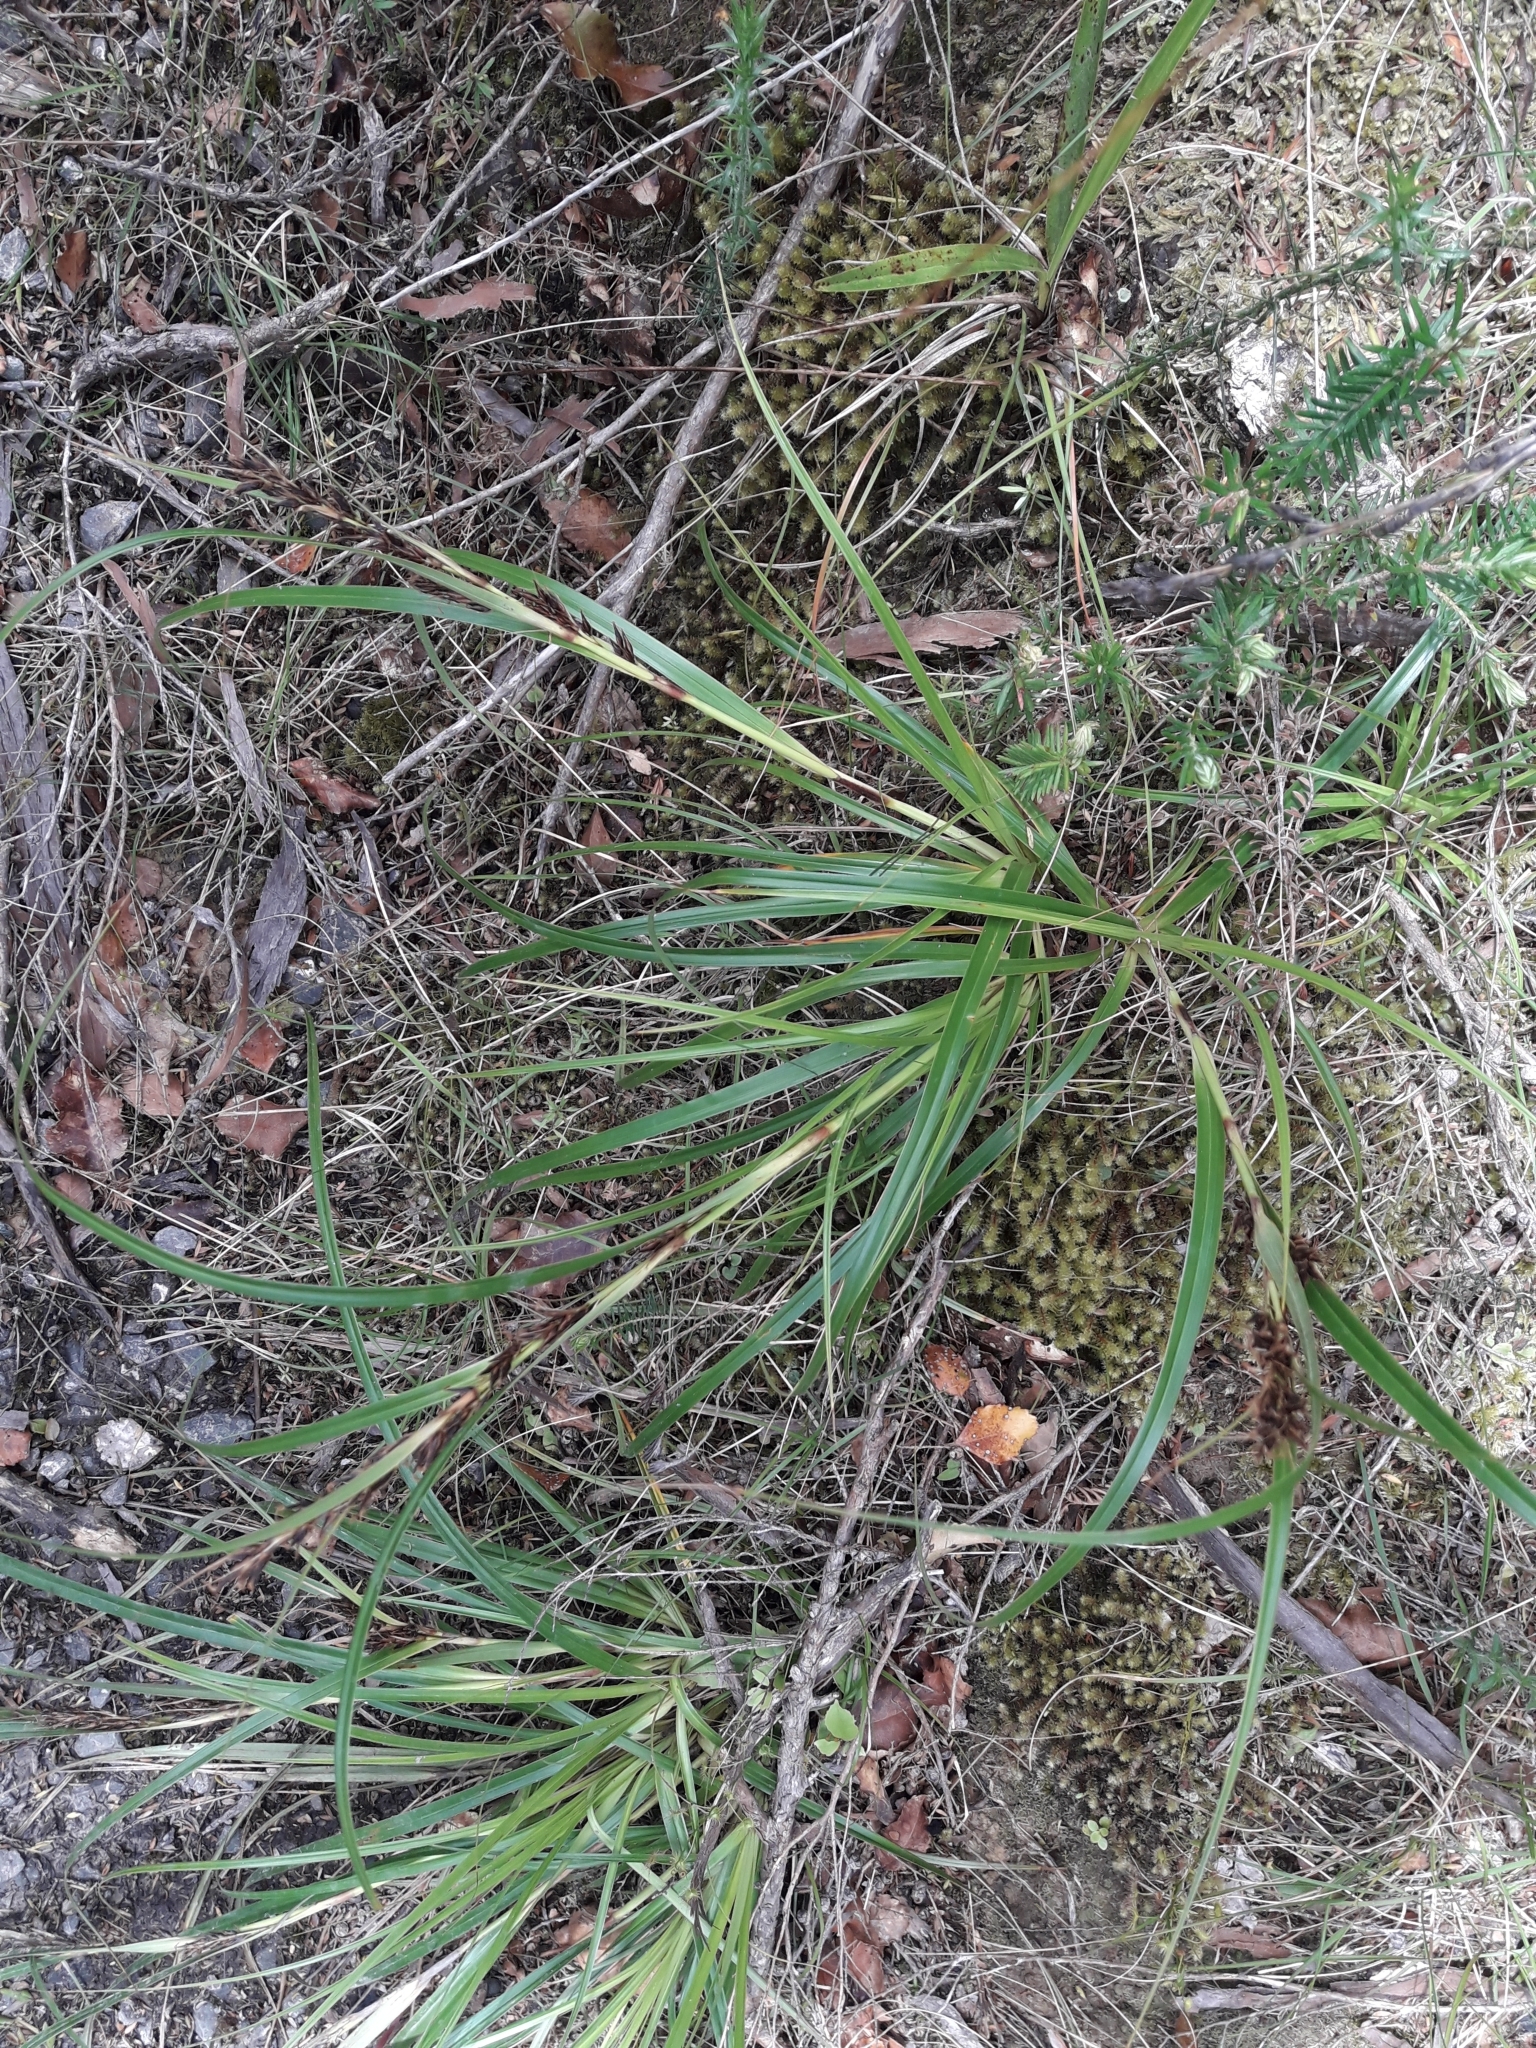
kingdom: Plantae
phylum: Tracheophyta
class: Liliopsida
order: Poales
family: Cyperaceae
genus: Morelotia
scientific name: Morelotia affinis
